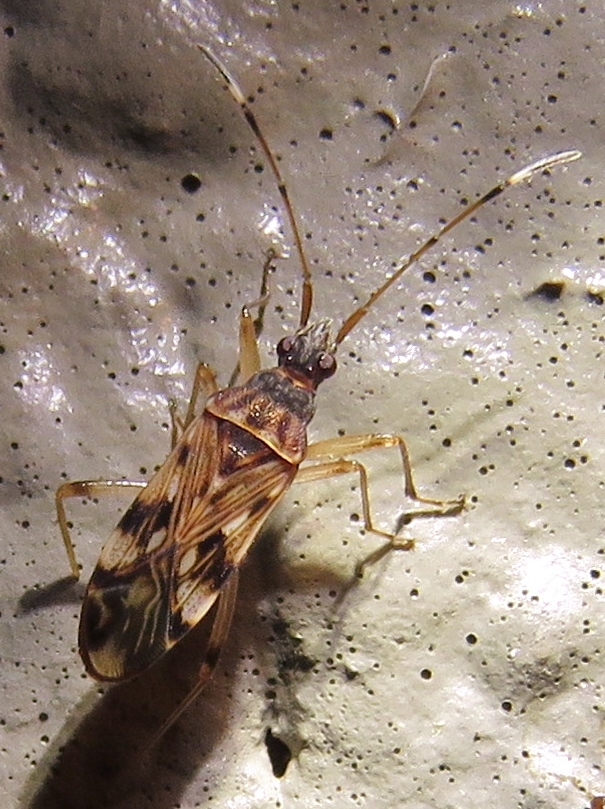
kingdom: Animalia
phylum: Arthropoda
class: Insecta
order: Hemiptera
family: Rhyparochromidae
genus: Ozophora
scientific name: Ozophora picturata
